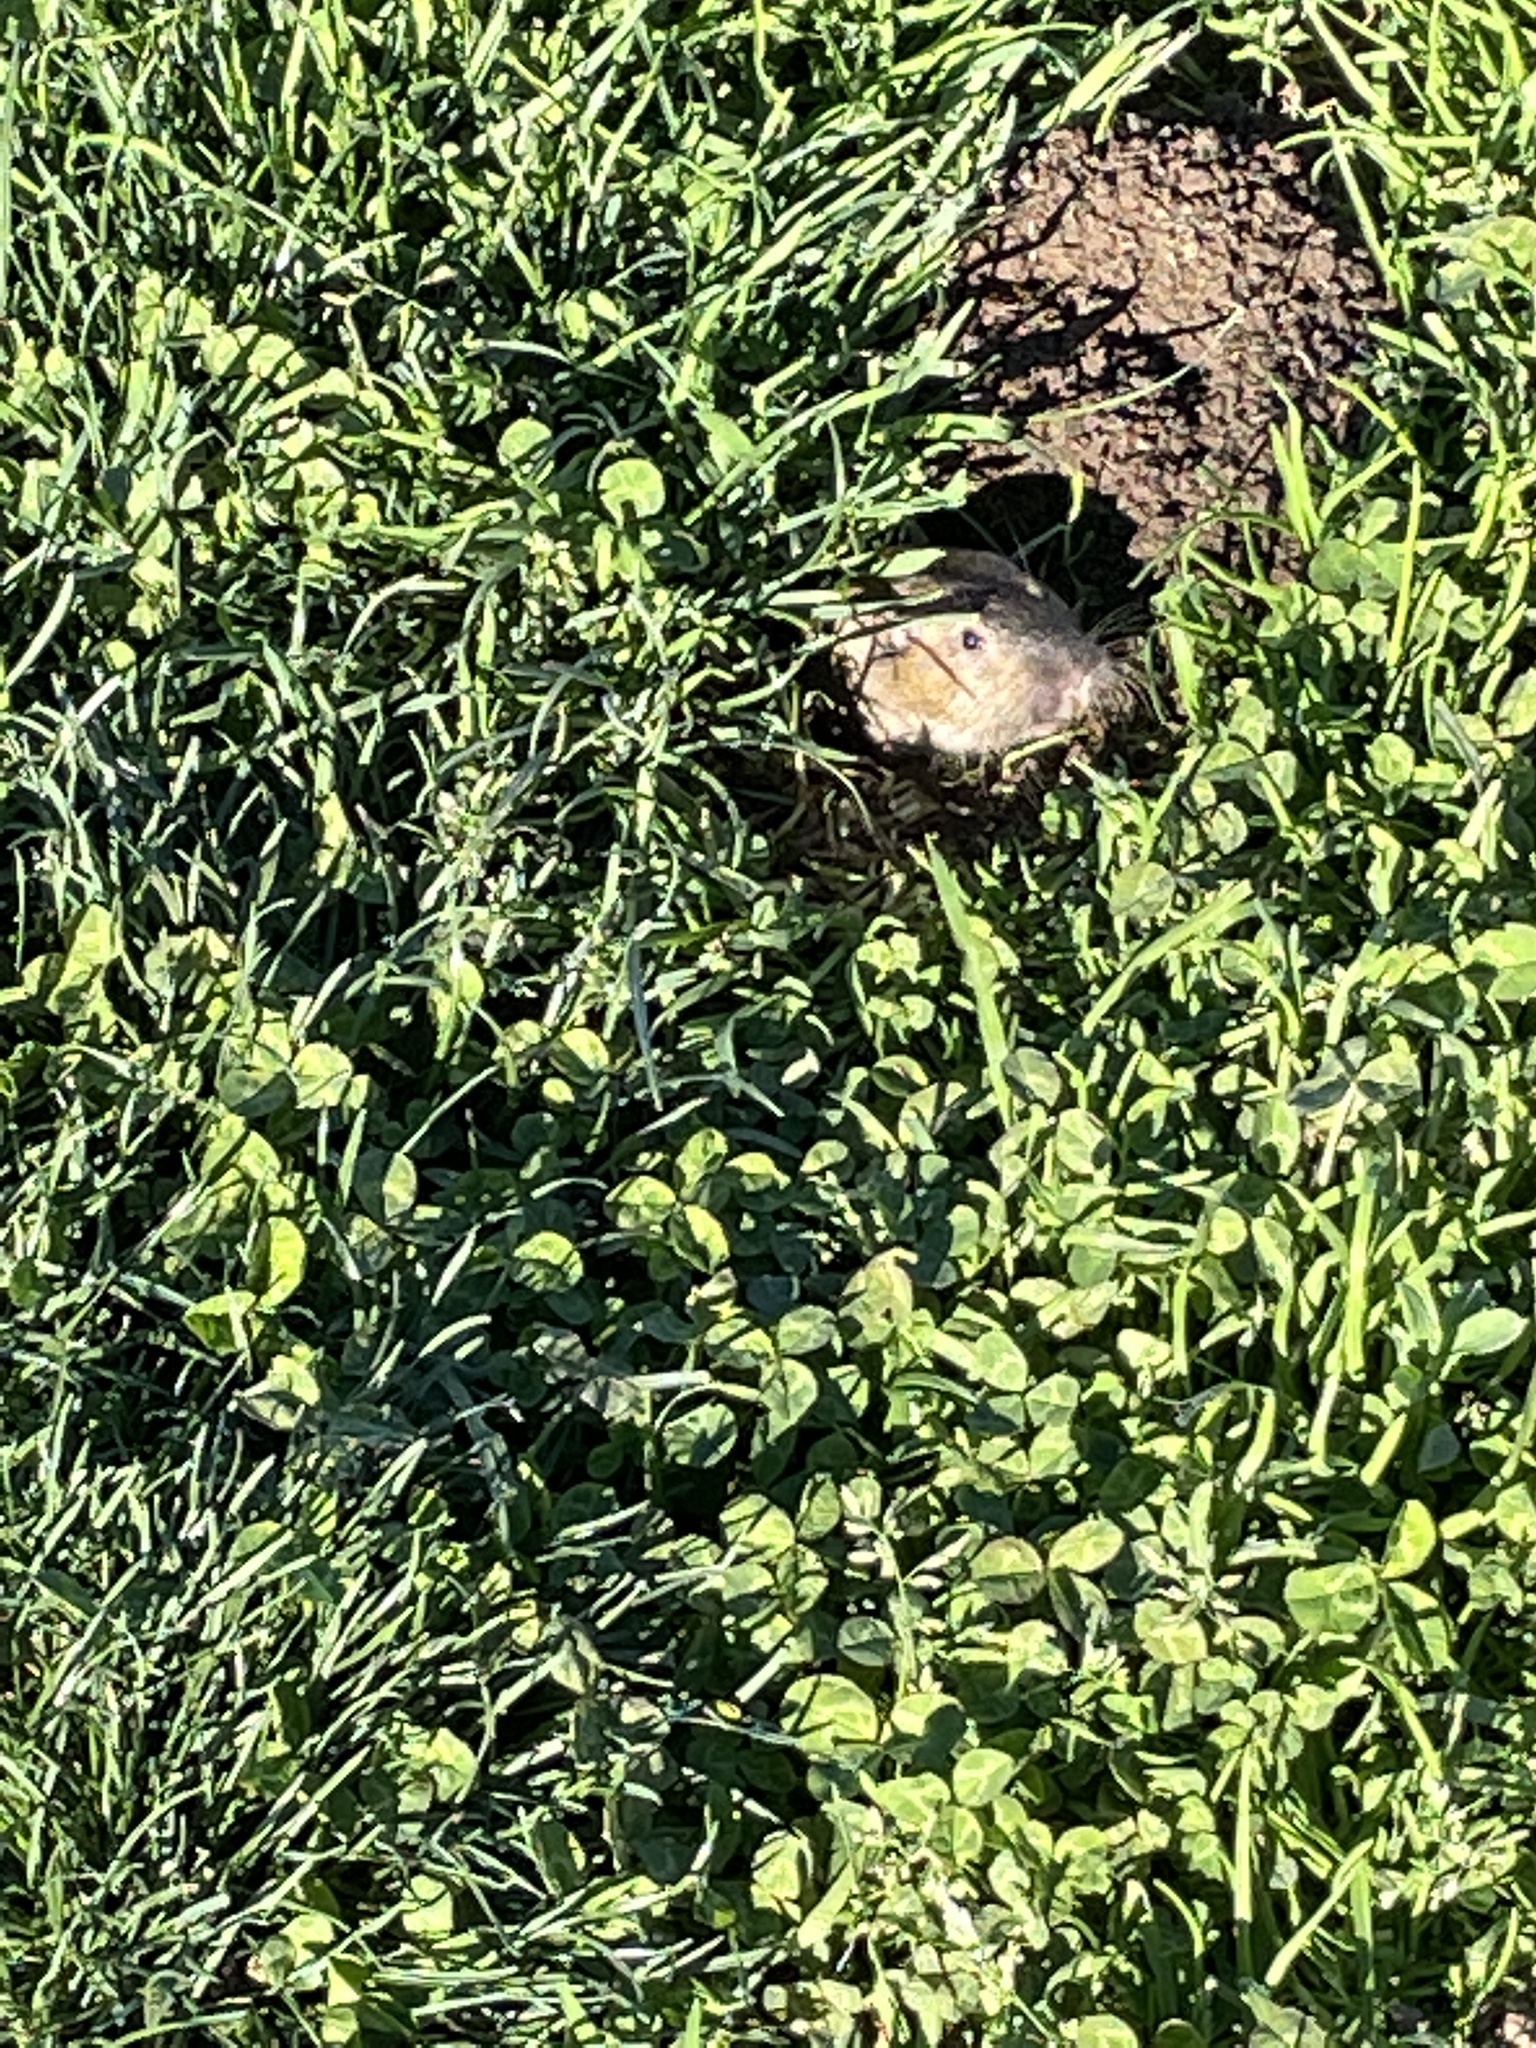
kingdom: Animalia
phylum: Chordata
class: Mammalia
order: Rodentia
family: Geomyidae
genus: Thomomys
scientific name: Thomomys bottae
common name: Botta's pocket gopher
